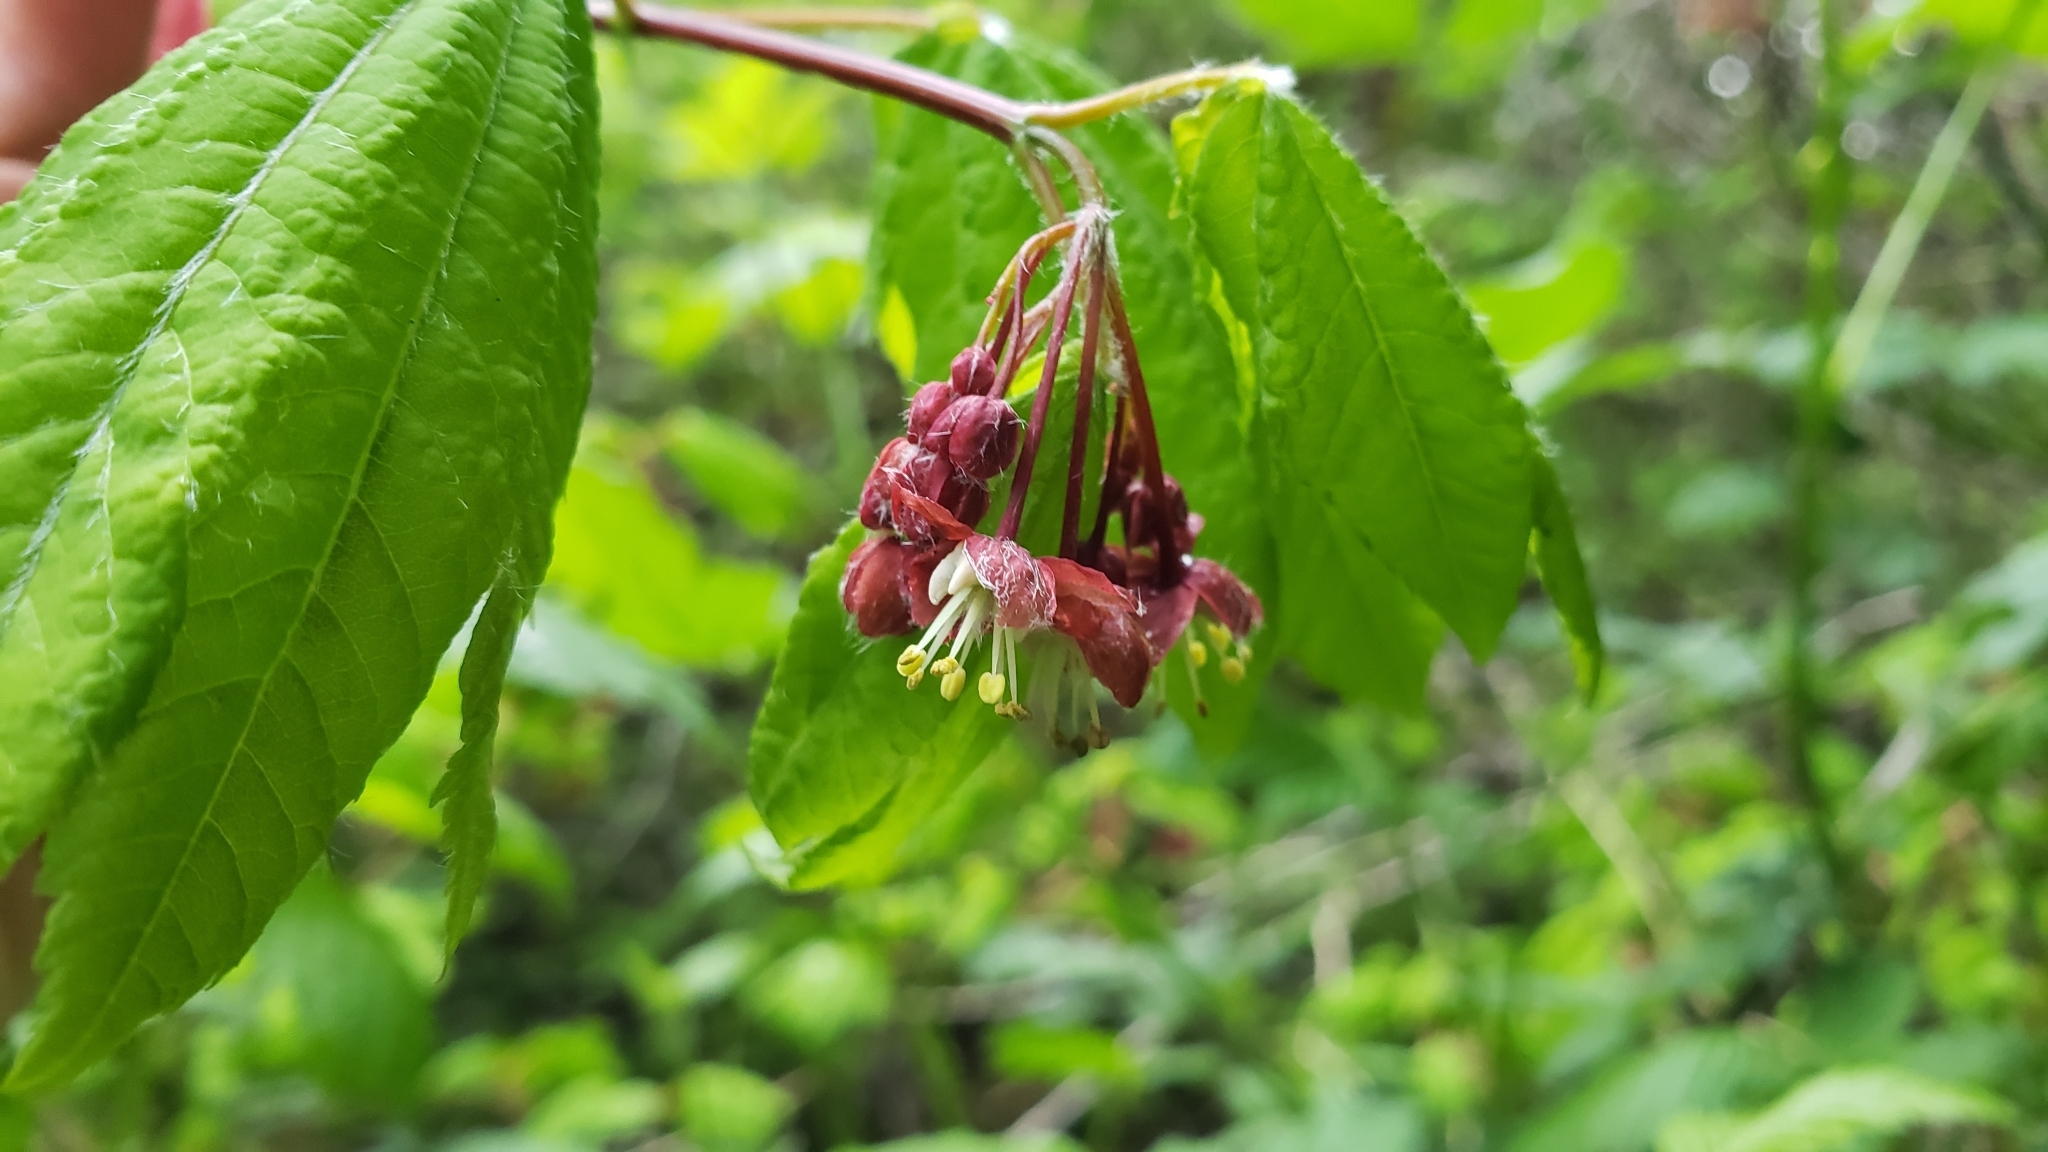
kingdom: Plantae
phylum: Tracheophyta
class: Magnoliopsida
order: Sapindales
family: Sapindaceae
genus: Acer
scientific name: Acer circinatum
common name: Vine maple
